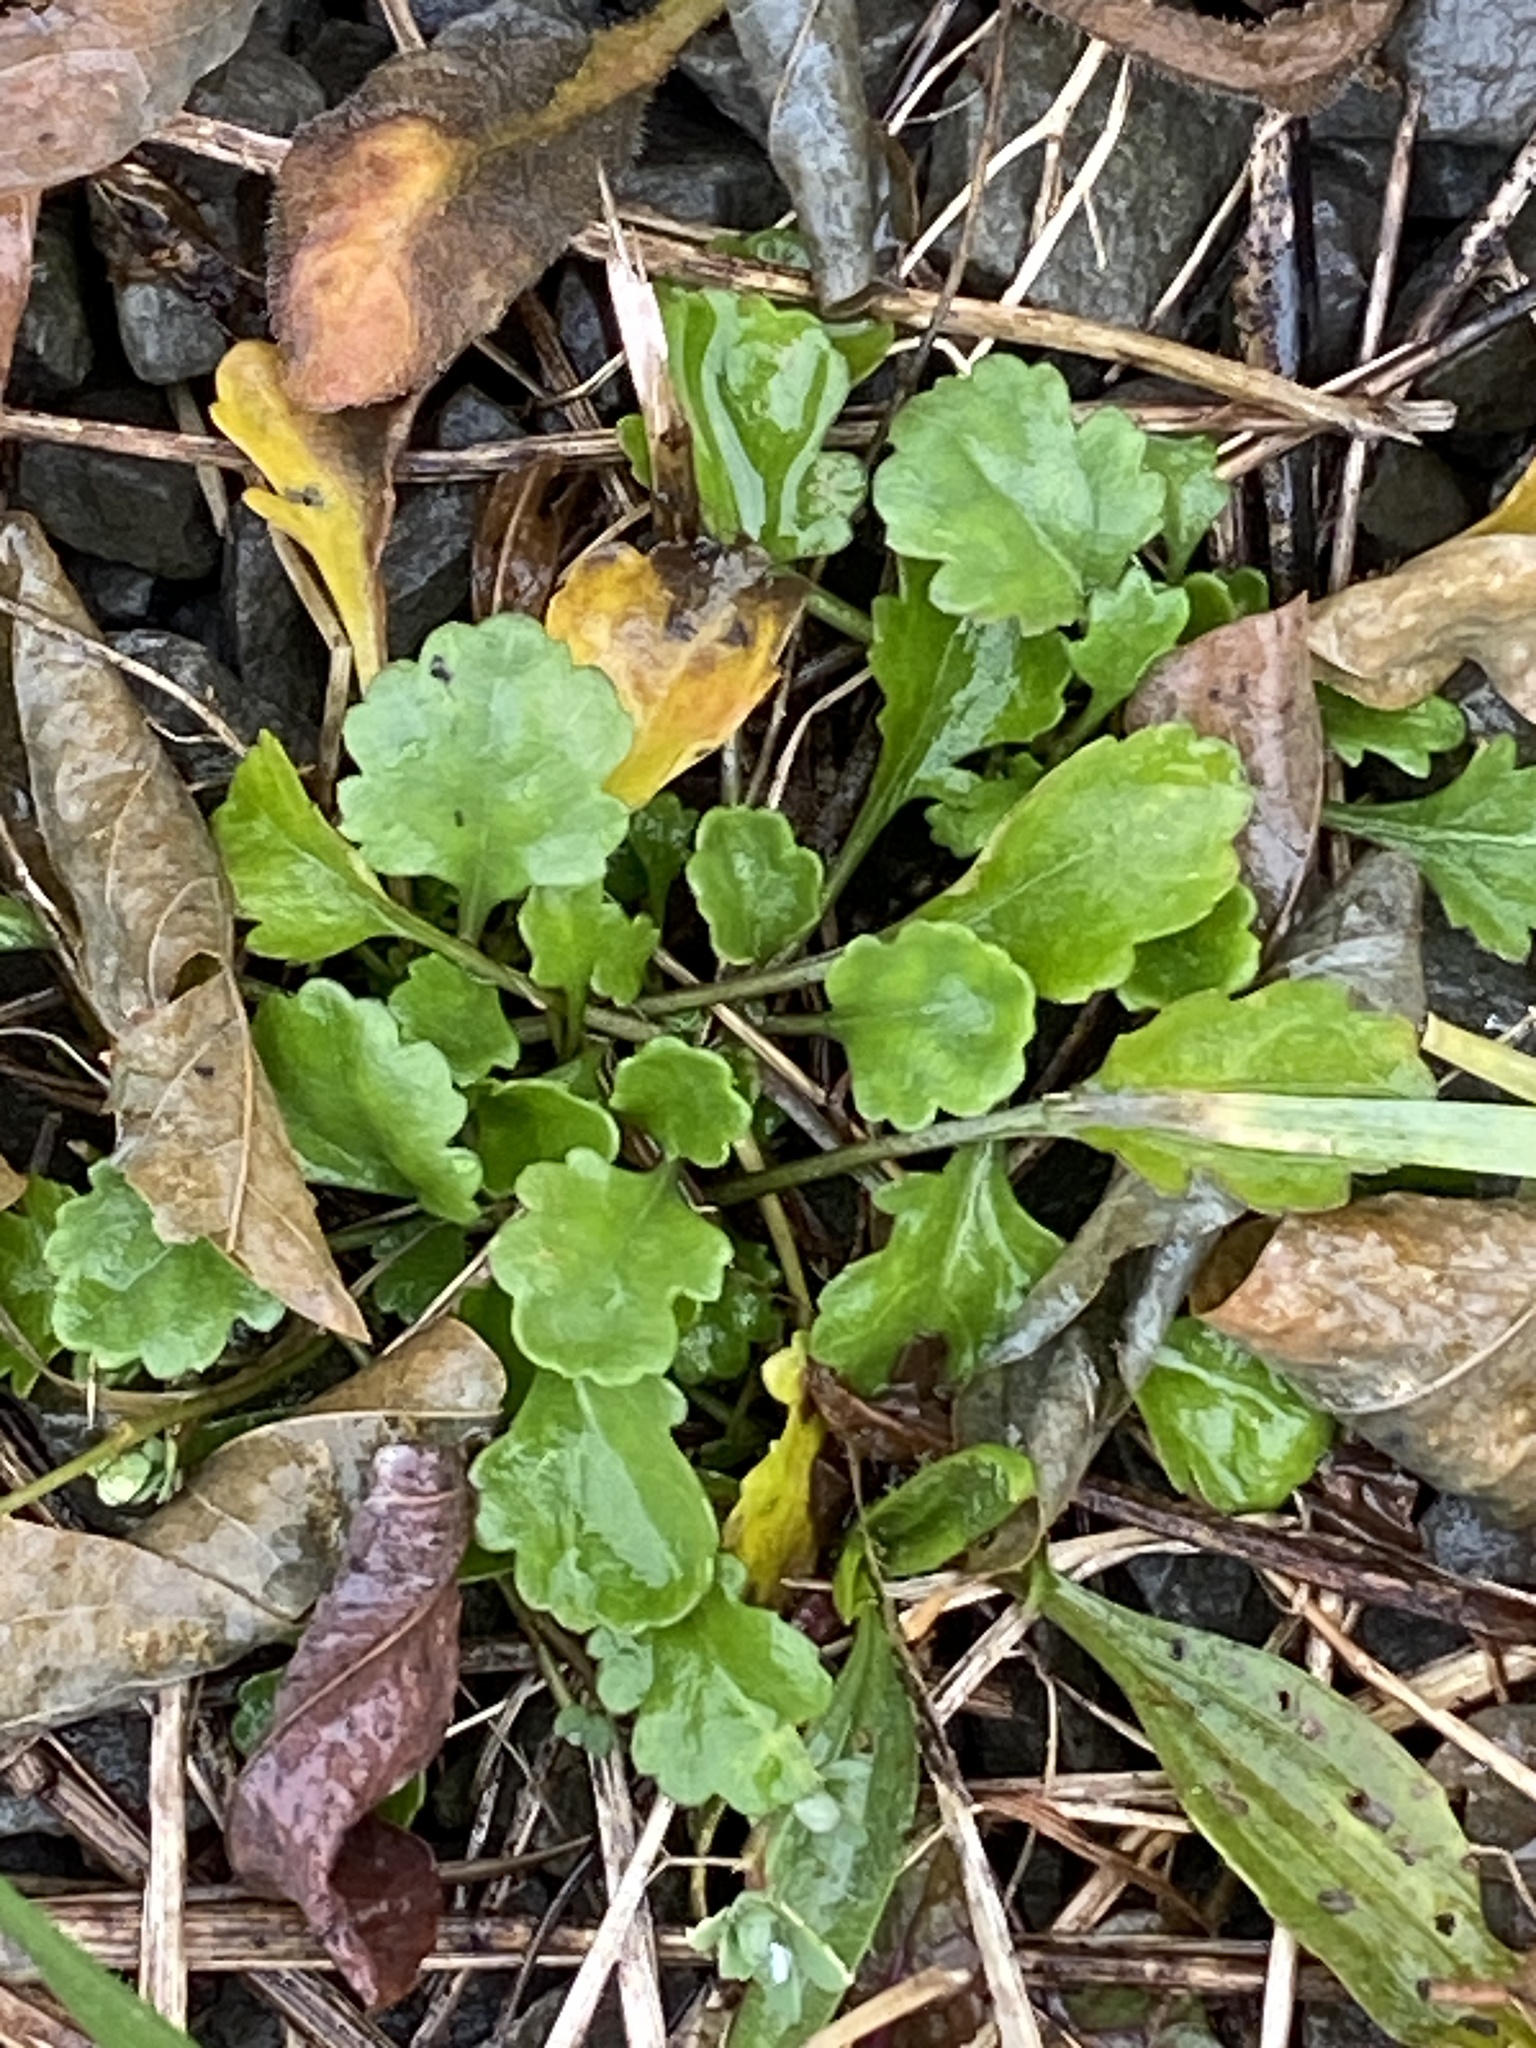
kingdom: Plantae
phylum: Tracheophyta
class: Magnoliopsida
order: Asterales
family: Asteraceae
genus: Leucanthemum
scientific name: Leucanthemum vulgare
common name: Oxeye daisy
